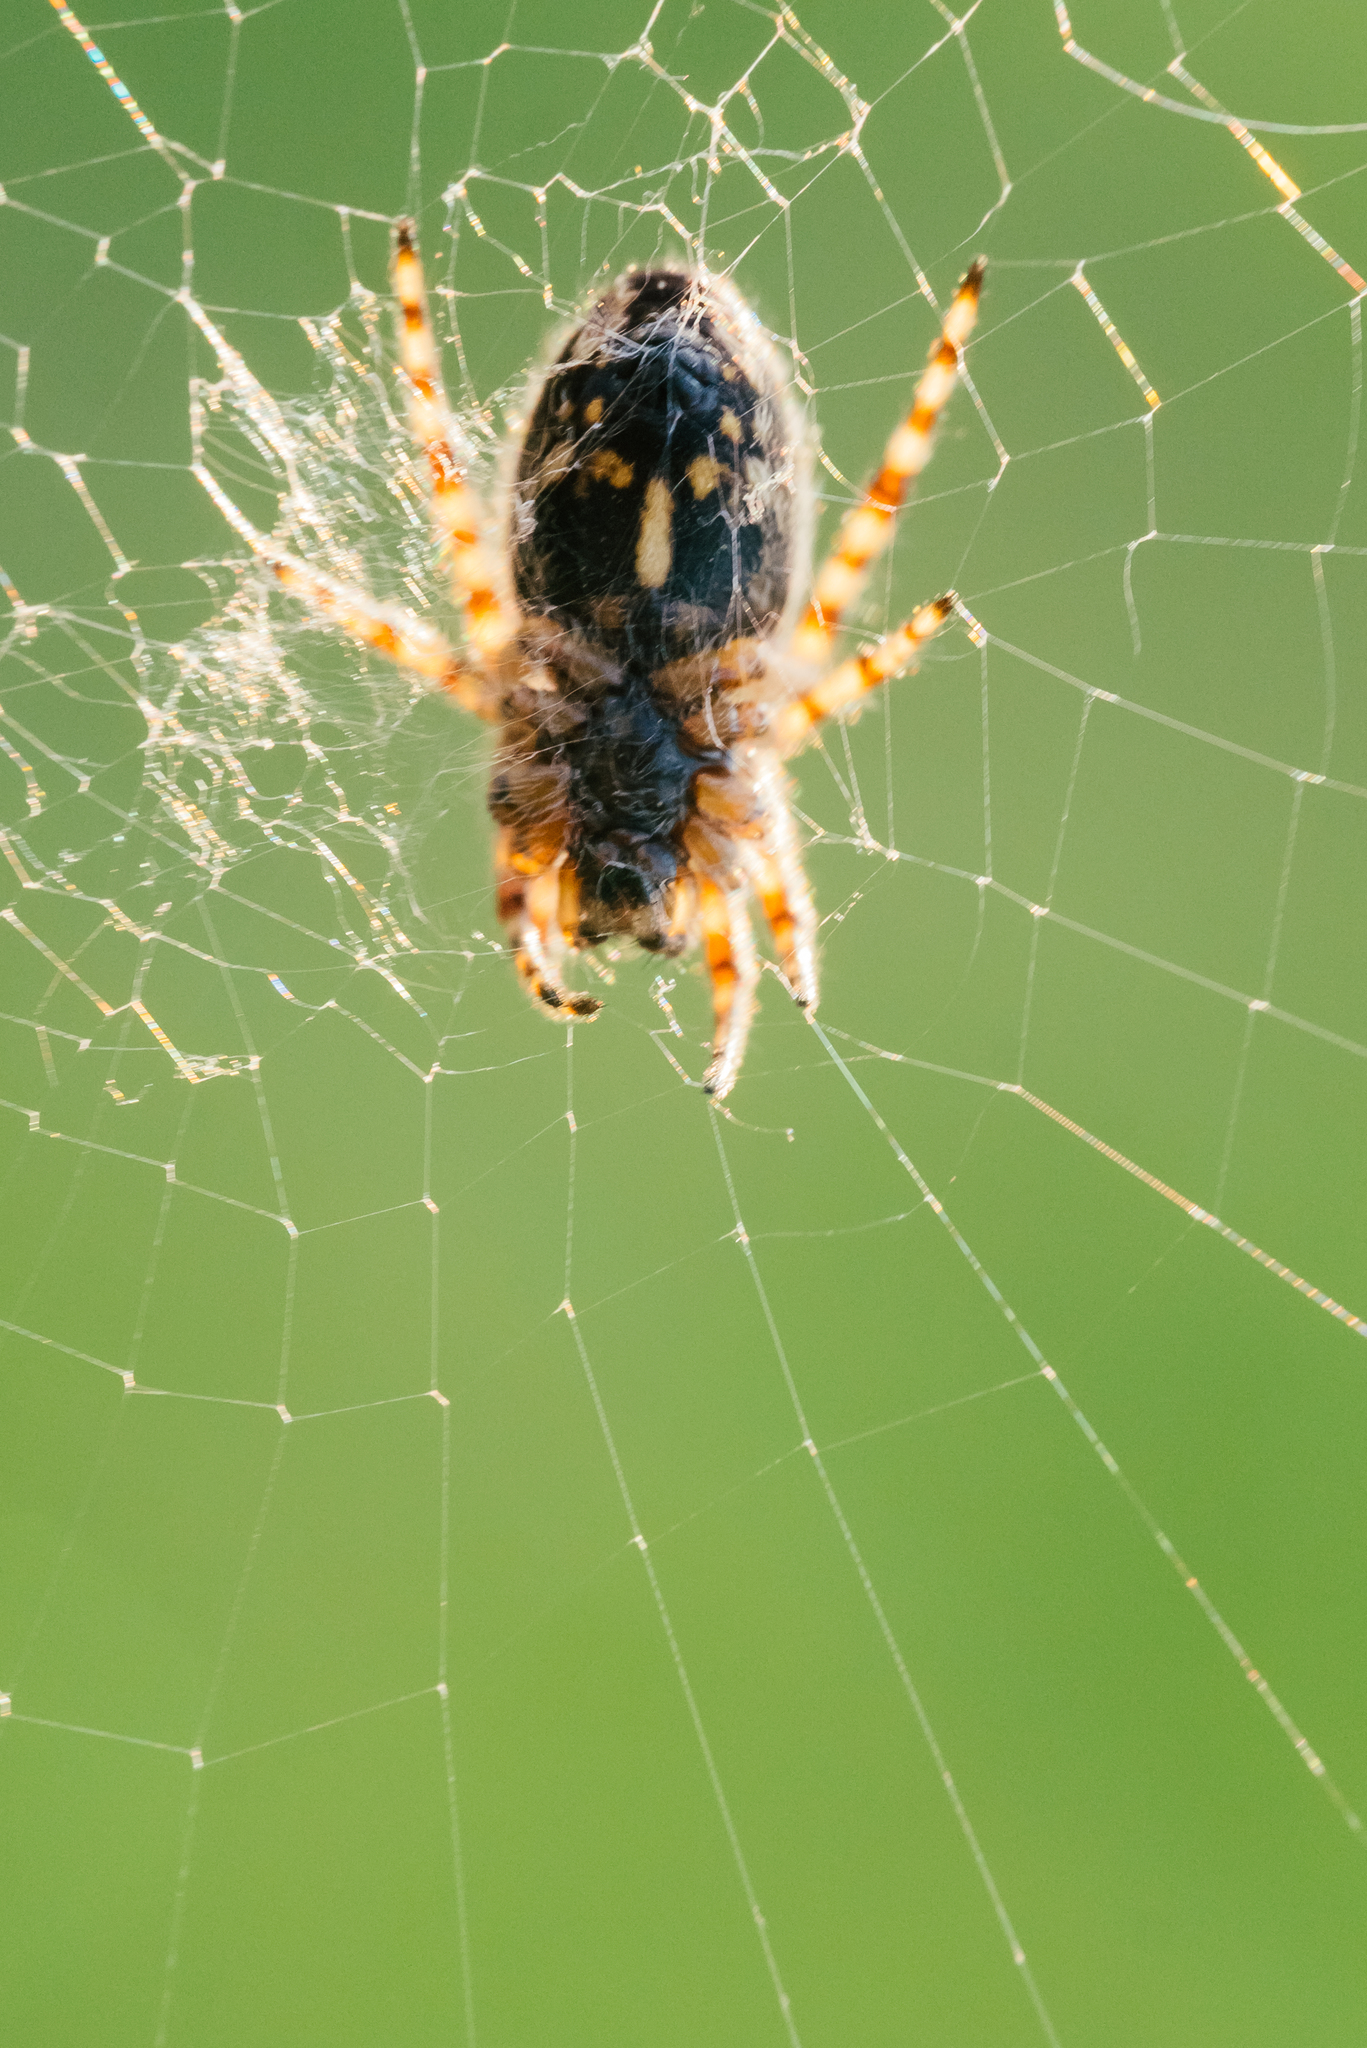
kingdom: Animalia
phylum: Arthropoda
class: Arachnida
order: Araneae
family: Araneidae
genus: Aculepeira
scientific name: Aculepeira armida
